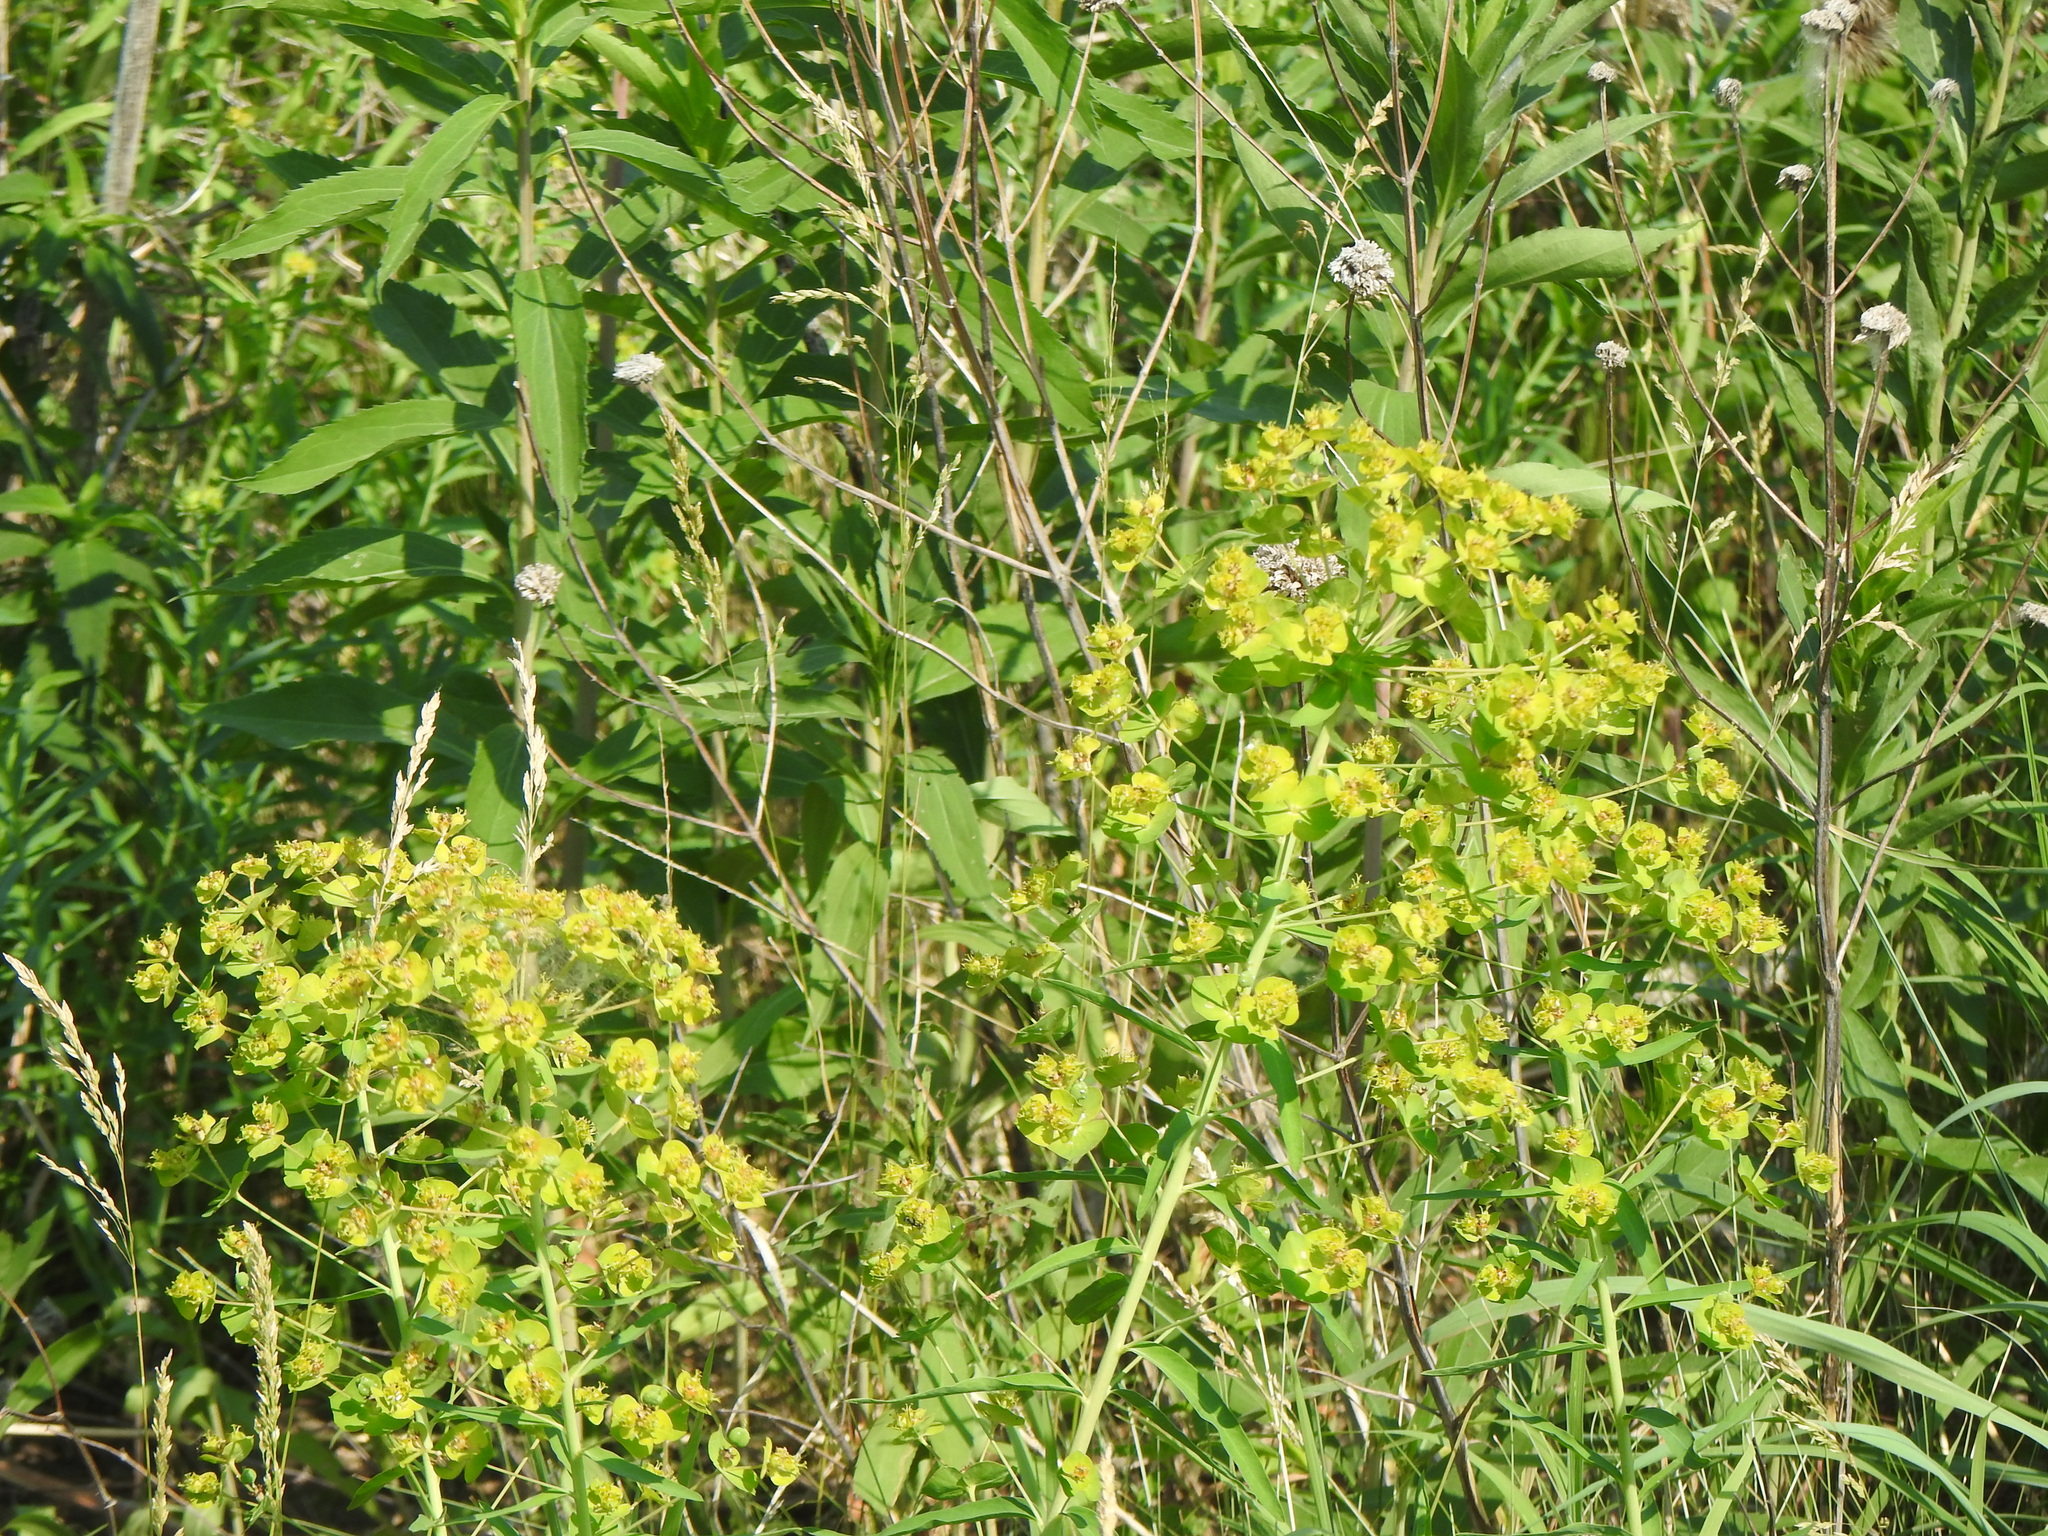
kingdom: Plantae
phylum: Tracheophyta
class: Magnoliopsida
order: Malpighiales
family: Euphorbiaceae
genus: Euphorbia
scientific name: Euphorbia virgata
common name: Leafy spurge
